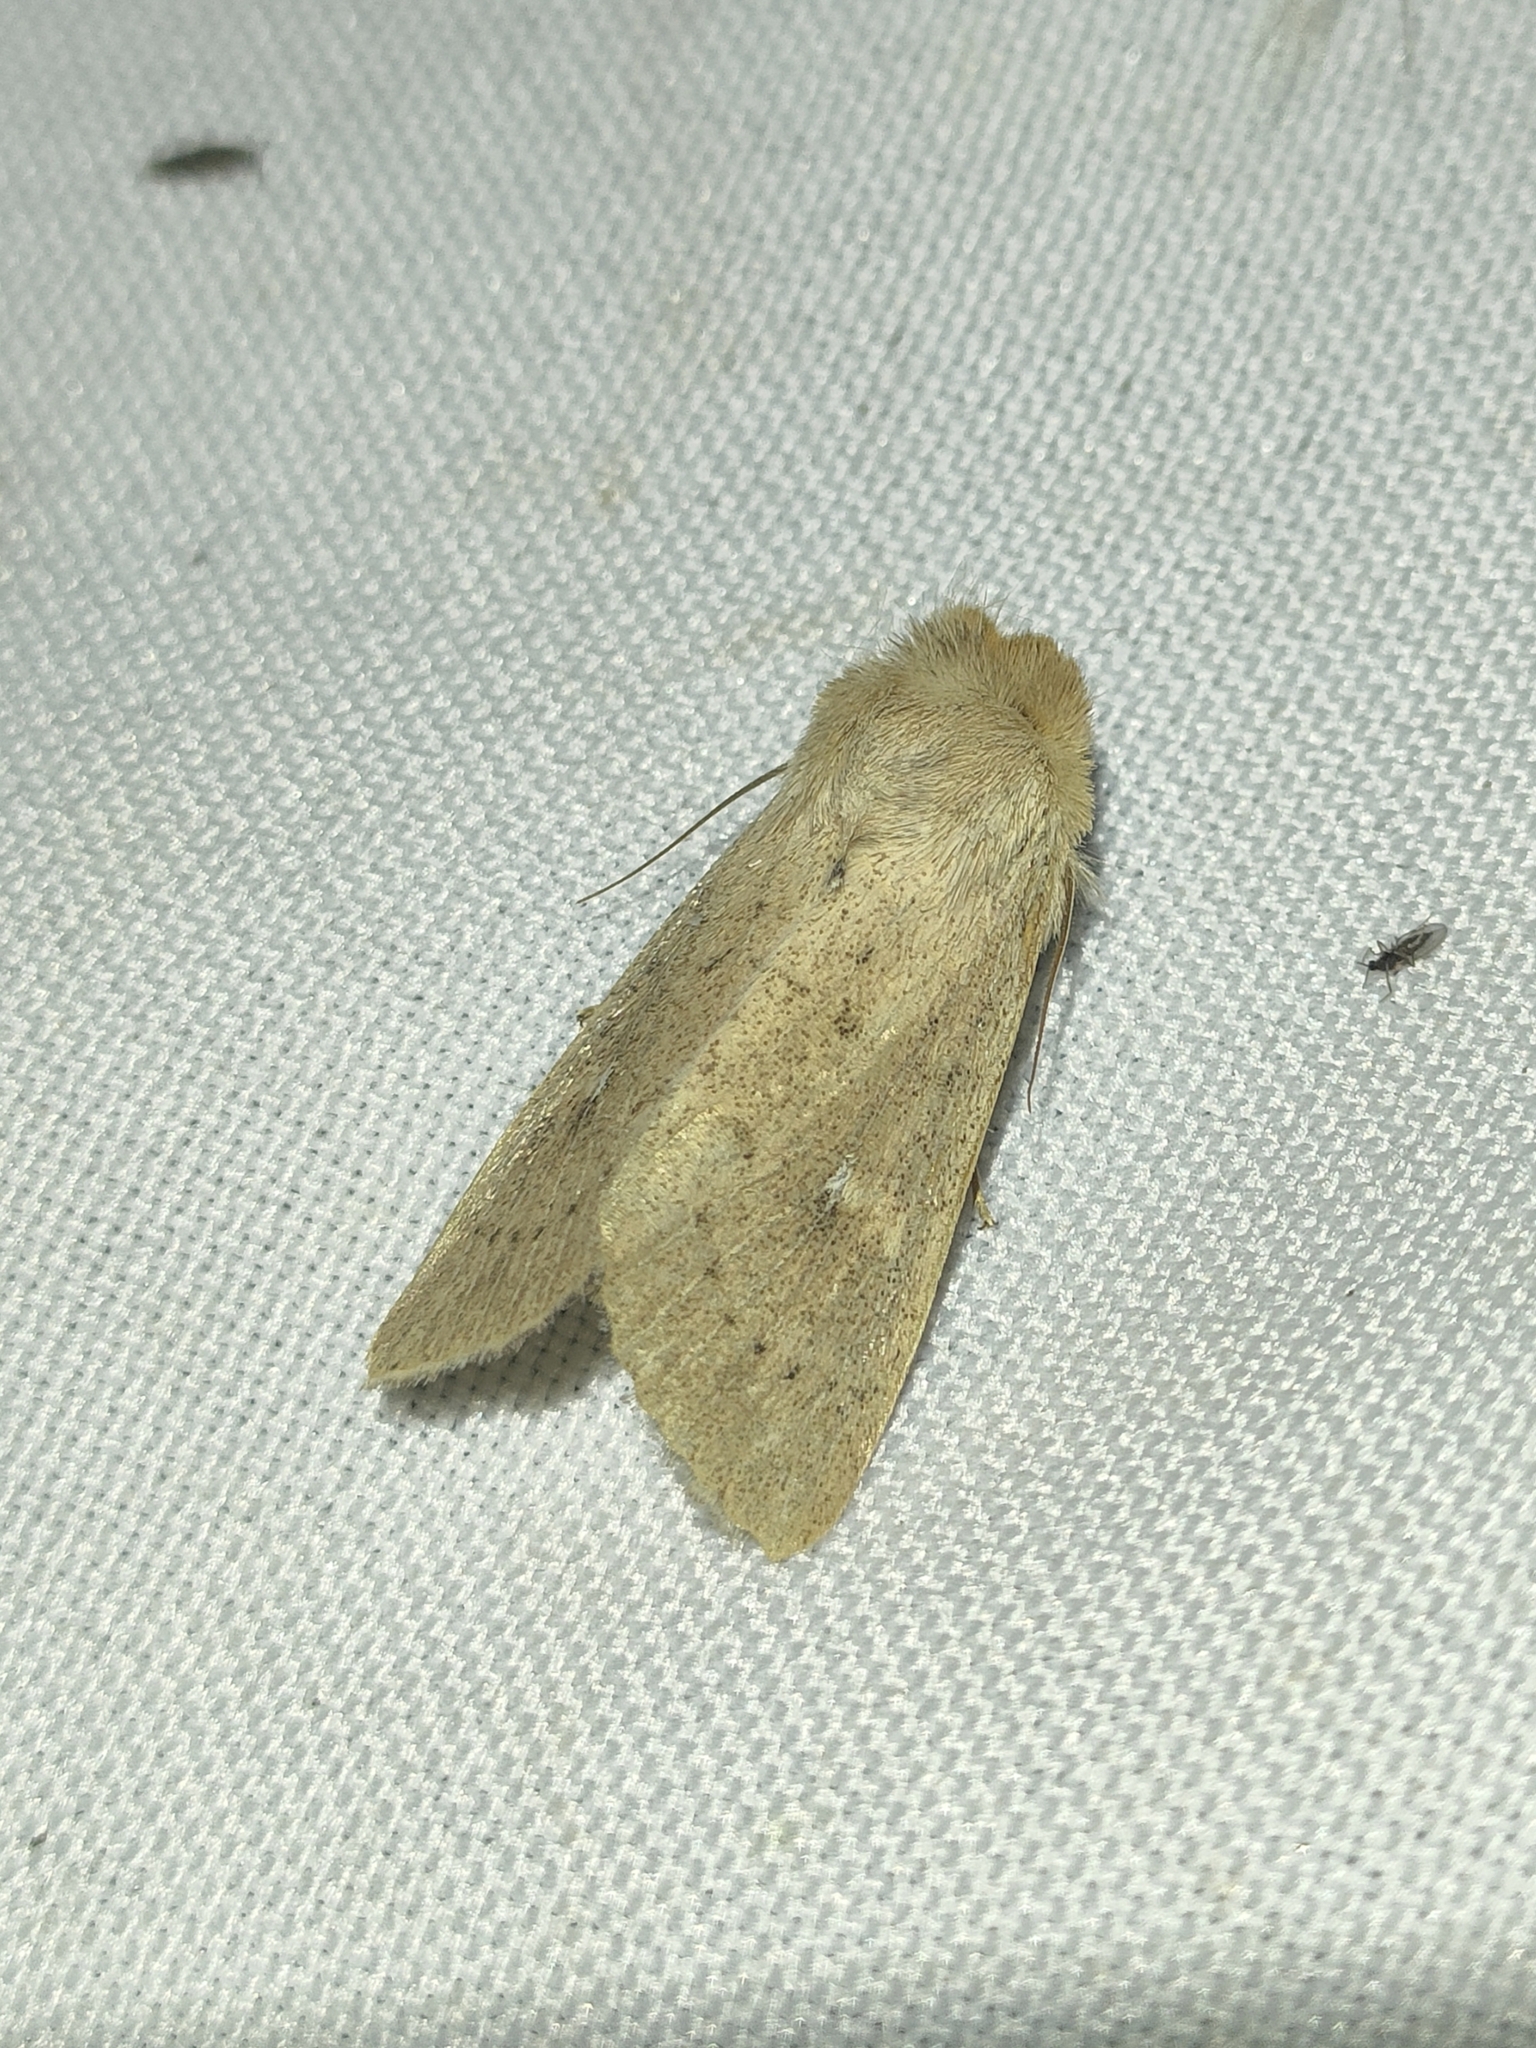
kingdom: Animalia
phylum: Arthropoda
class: Insecta
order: Lepidoptera
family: Noctuidae
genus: Mythimna
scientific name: Mythimna ferrago
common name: Clay
